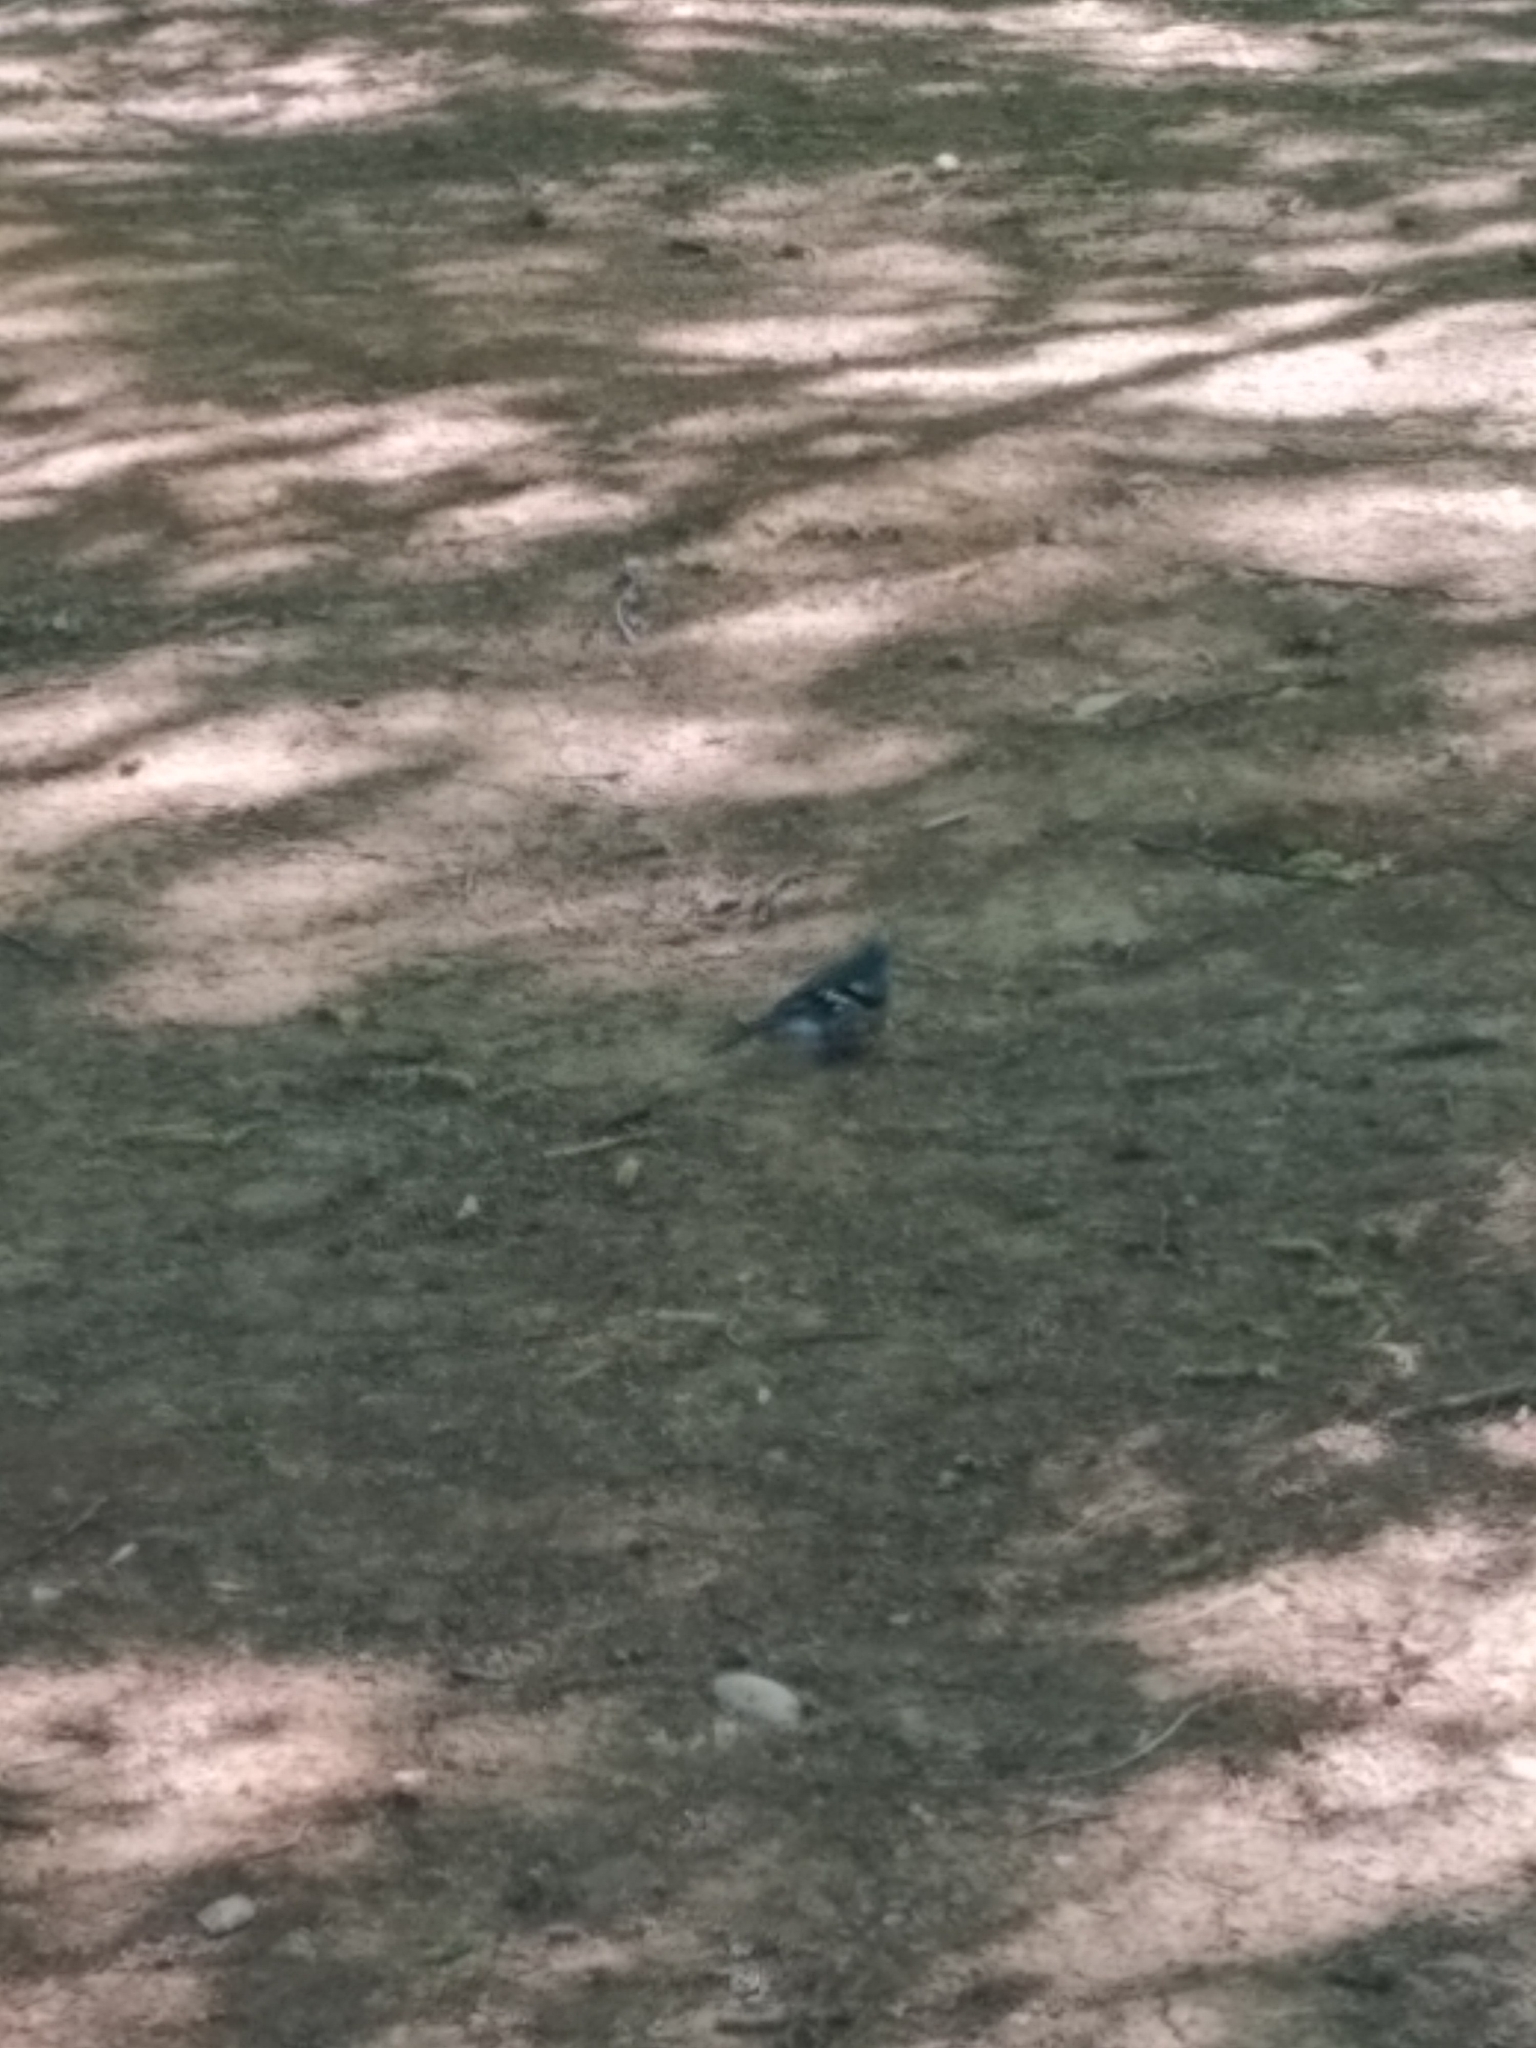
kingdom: Animalia
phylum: Chordata
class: Aves
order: Passeriformes
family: Fringillidae
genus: Fringilla
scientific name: Fringilla coelebs
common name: Common chaffinch
